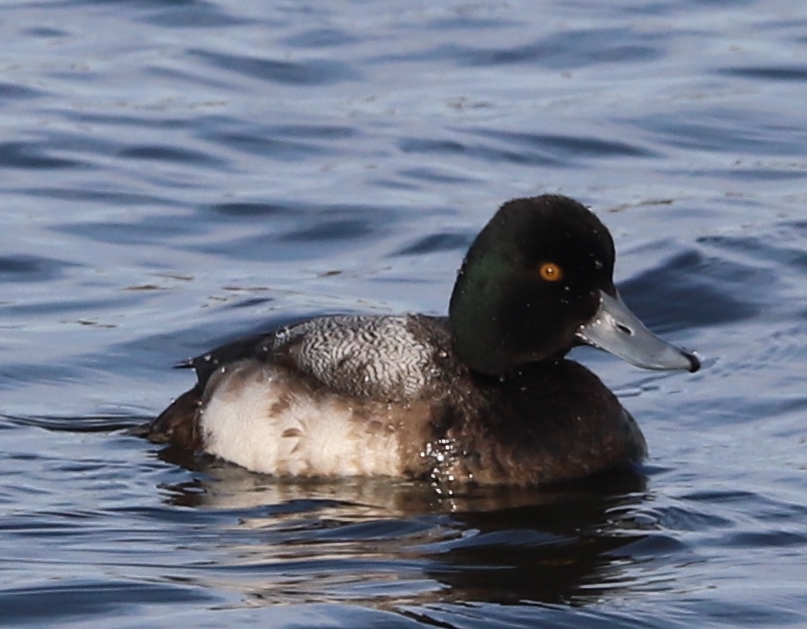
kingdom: Animalia
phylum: Chordata
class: Aves
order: Anseriformes
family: Anatidae
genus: Aythya
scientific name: Aythya marila
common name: Greater scaup
